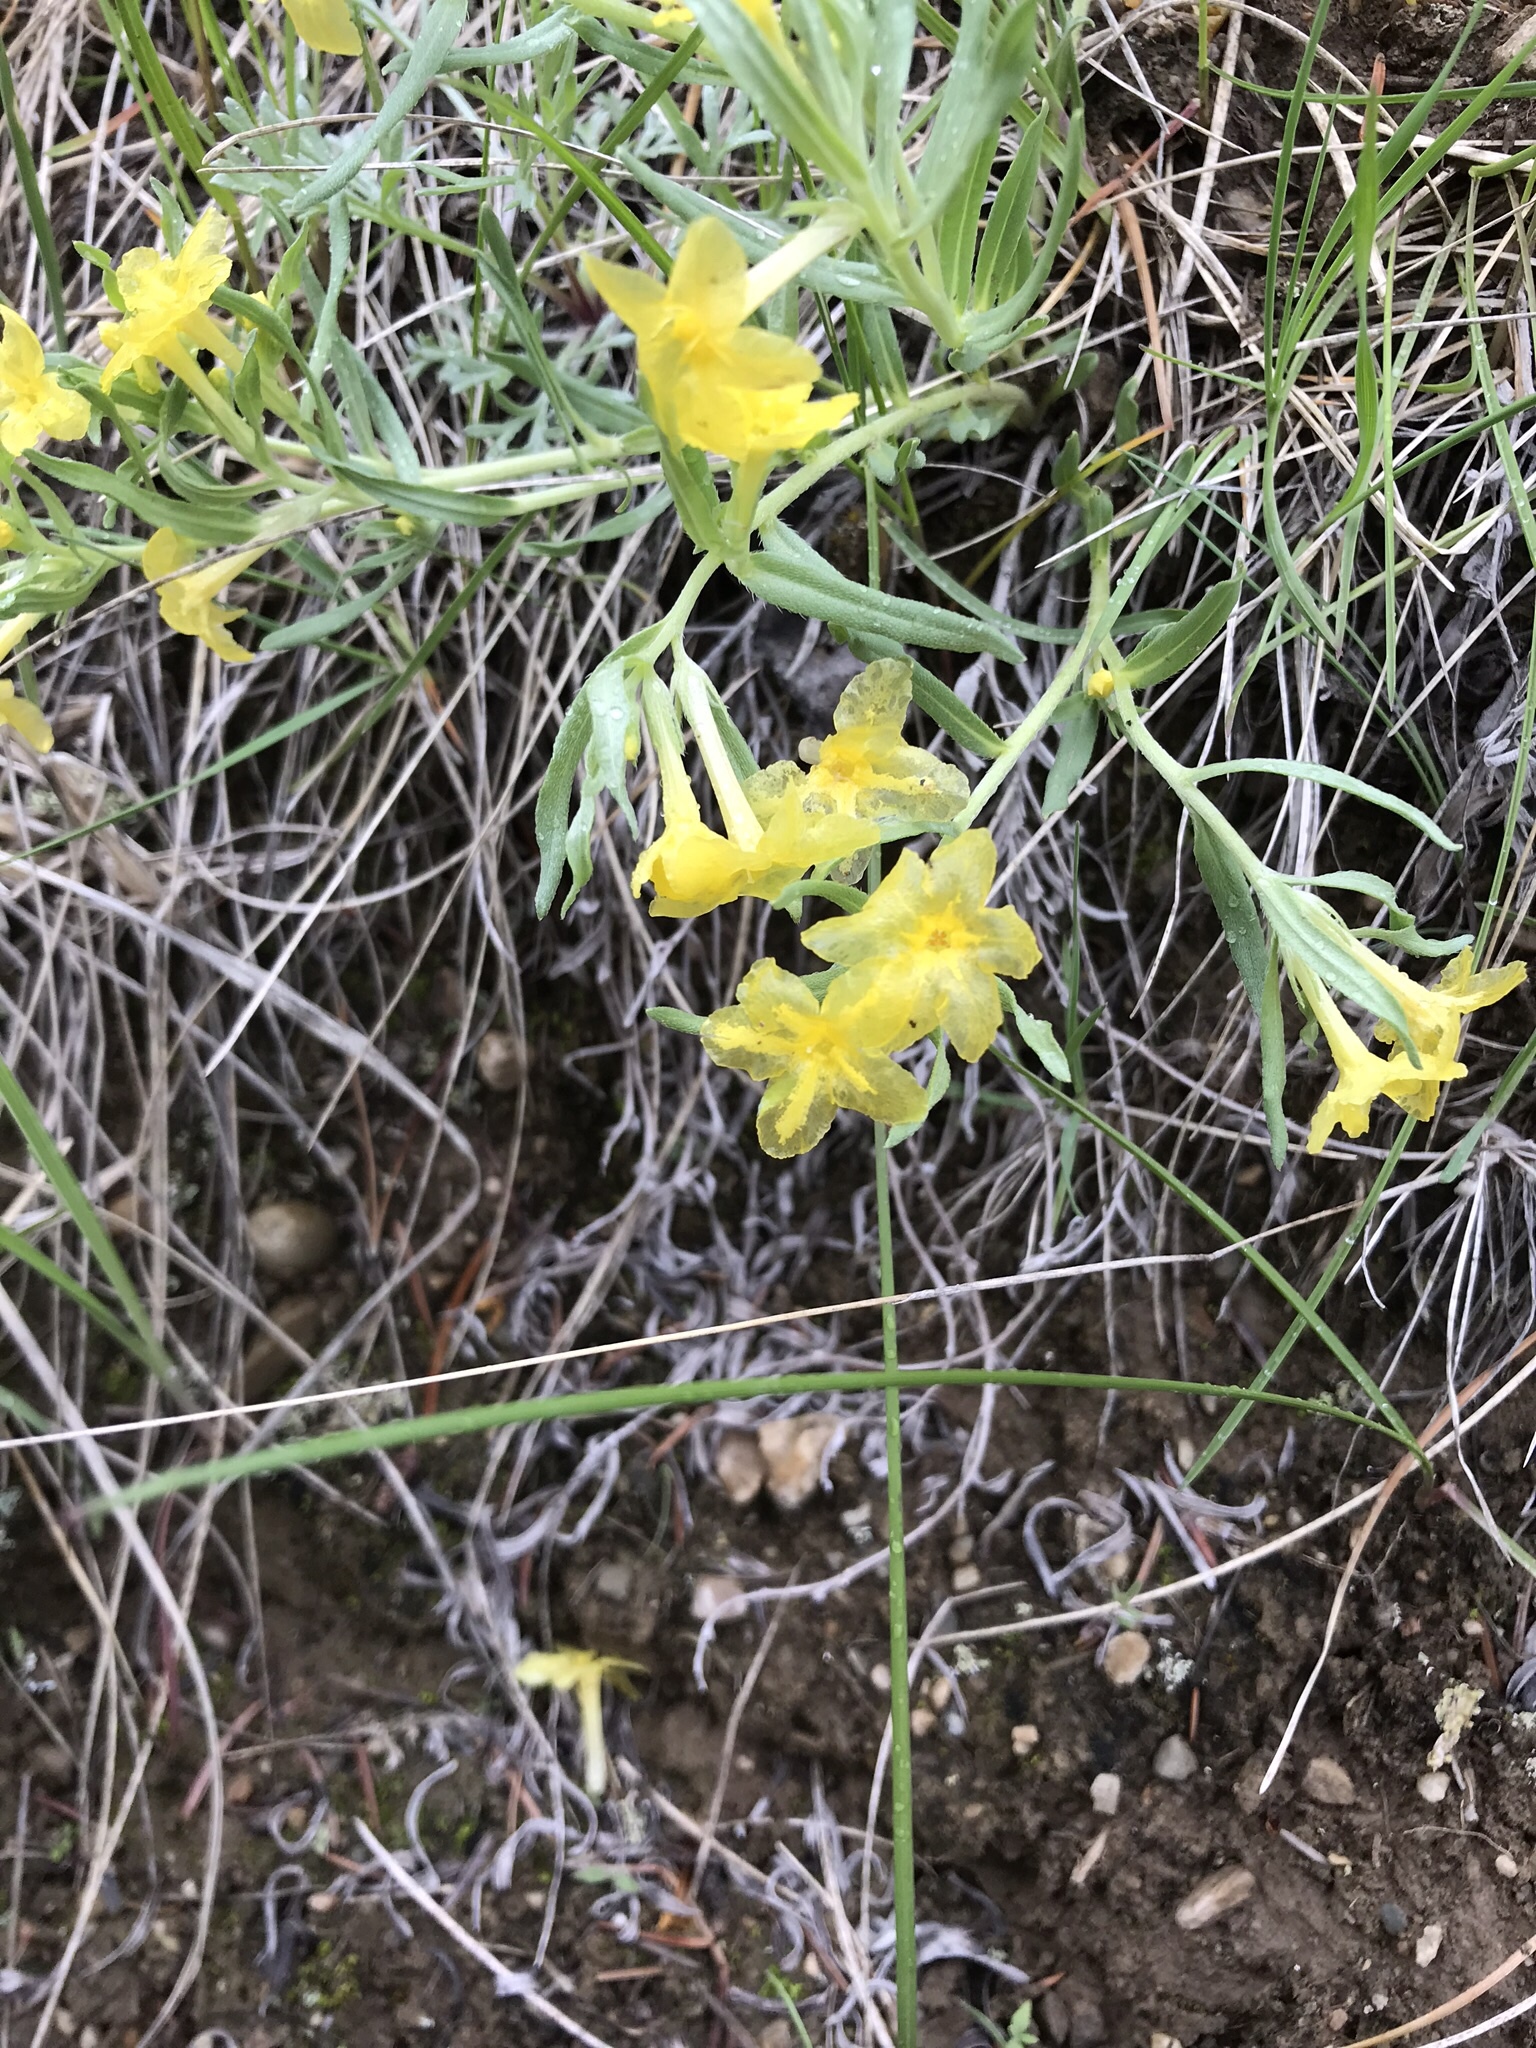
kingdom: Plantae
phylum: Tracheophyta
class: Magnoliopsida
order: Boraginales
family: Boraginaceae
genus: Lithospermum
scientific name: Lithospermum incisum
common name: Fringed gromwell
